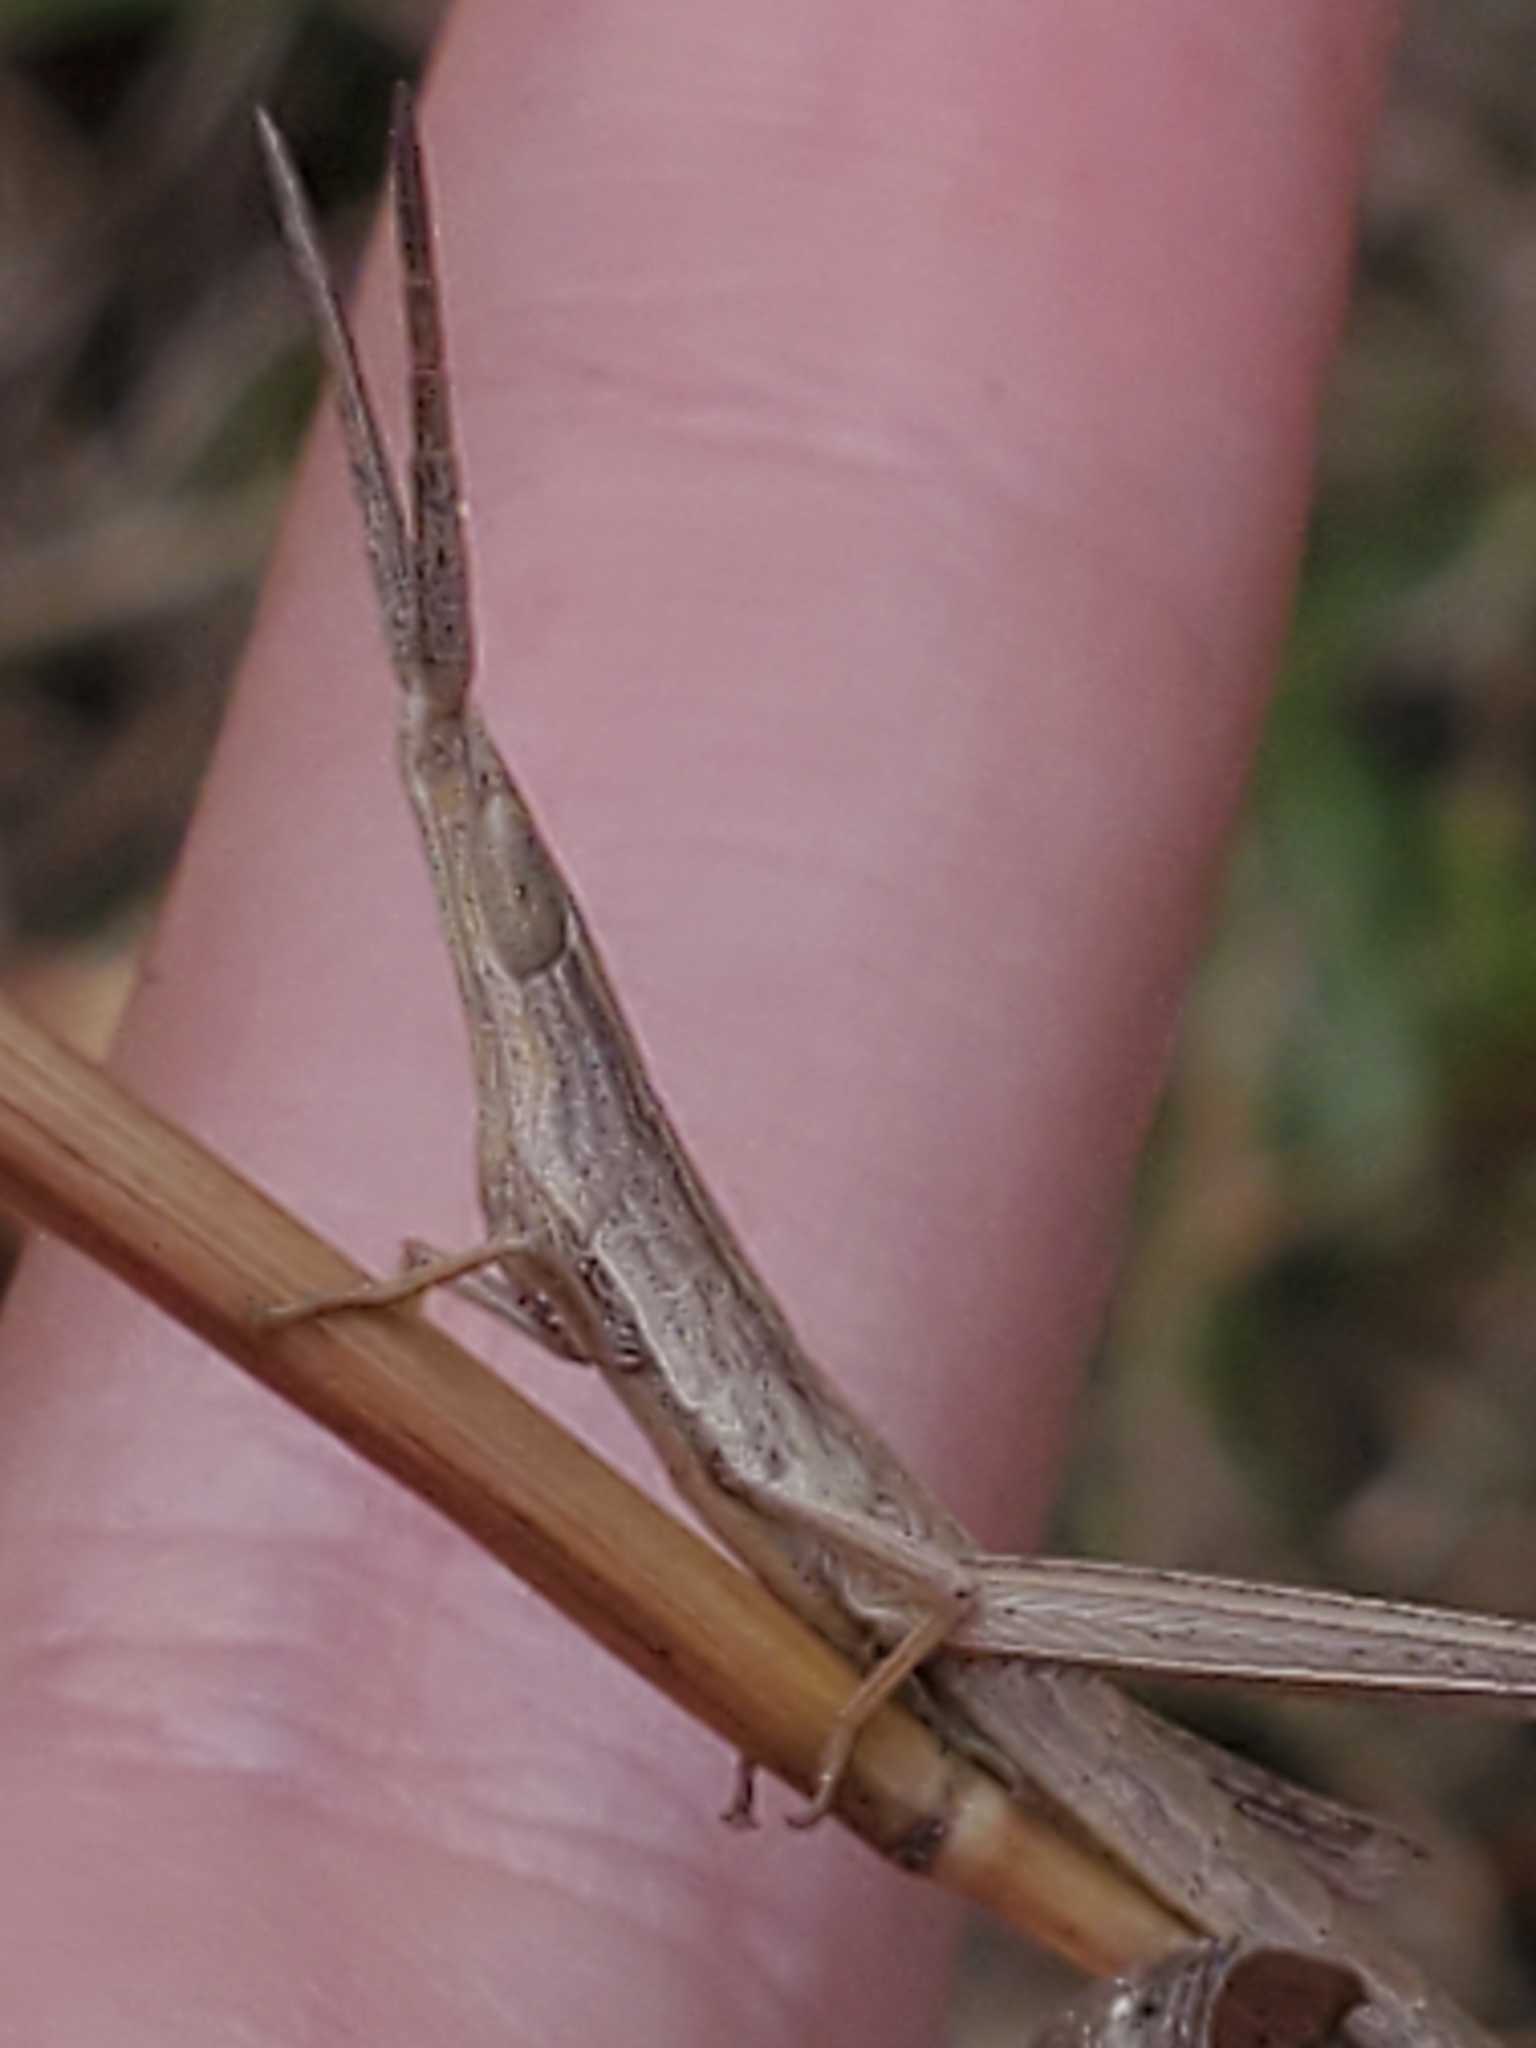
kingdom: Animalia
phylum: Arthropoda
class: Insecta
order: Orthoptera
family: Acrididae
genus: Achurum
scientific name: Achurum carinatum
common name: Long-headed toothpick grasshopper
